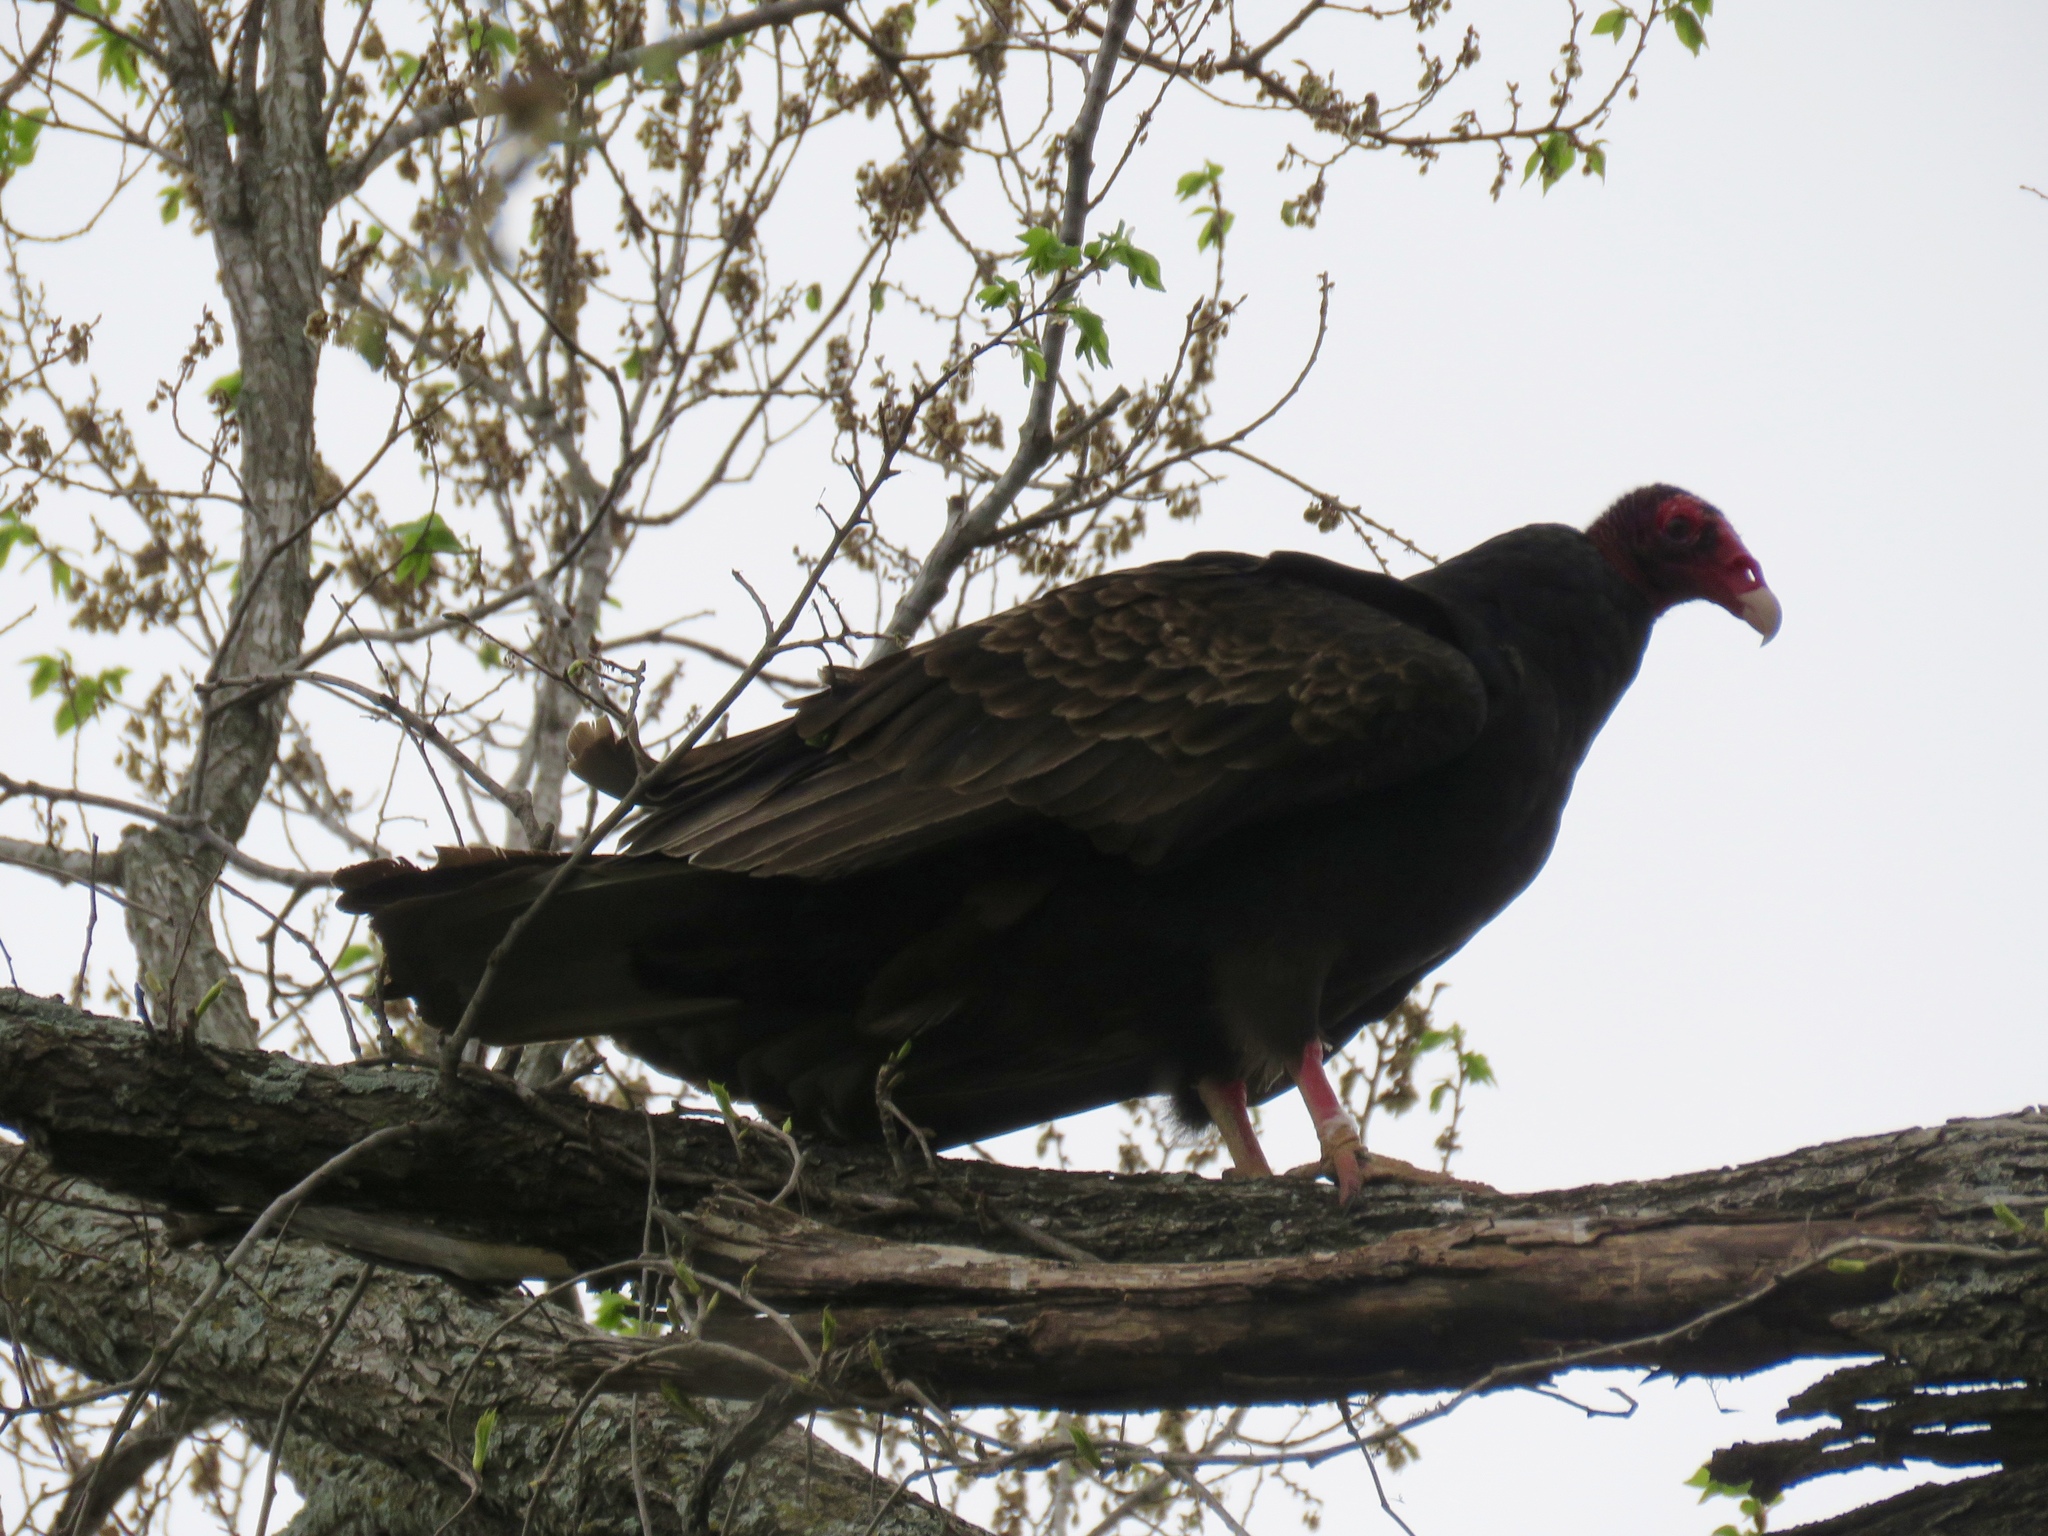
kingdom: Animalia
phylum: Chordata
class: Aves
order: Accipitriformes
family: Cathartidae
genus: Cathartes
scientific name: Cathartes aura
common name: Turkey vulture
